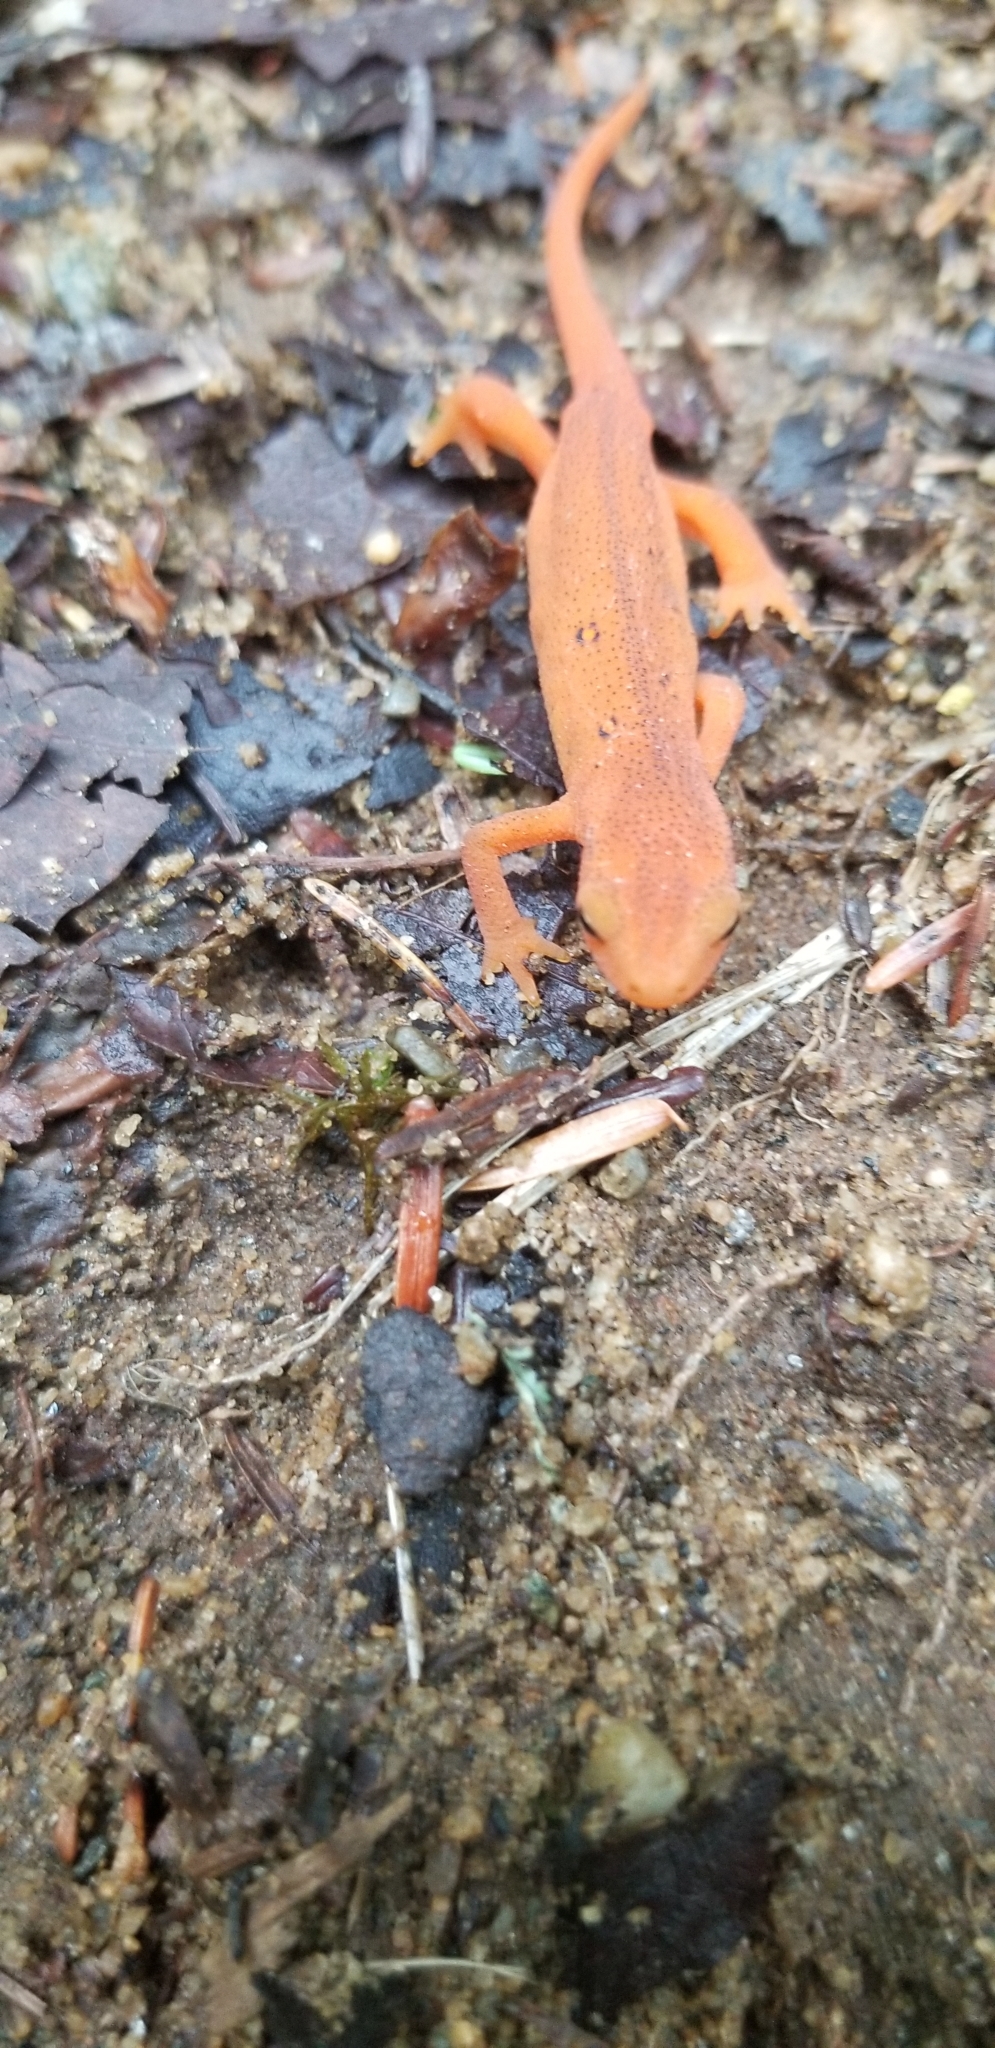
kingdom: Animalia
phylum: Chordata
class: Amphibia
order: Caudata
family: Salamandridae
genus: Notophthalmus
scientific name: Notophthalmus viridescens
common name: Eastern newt
